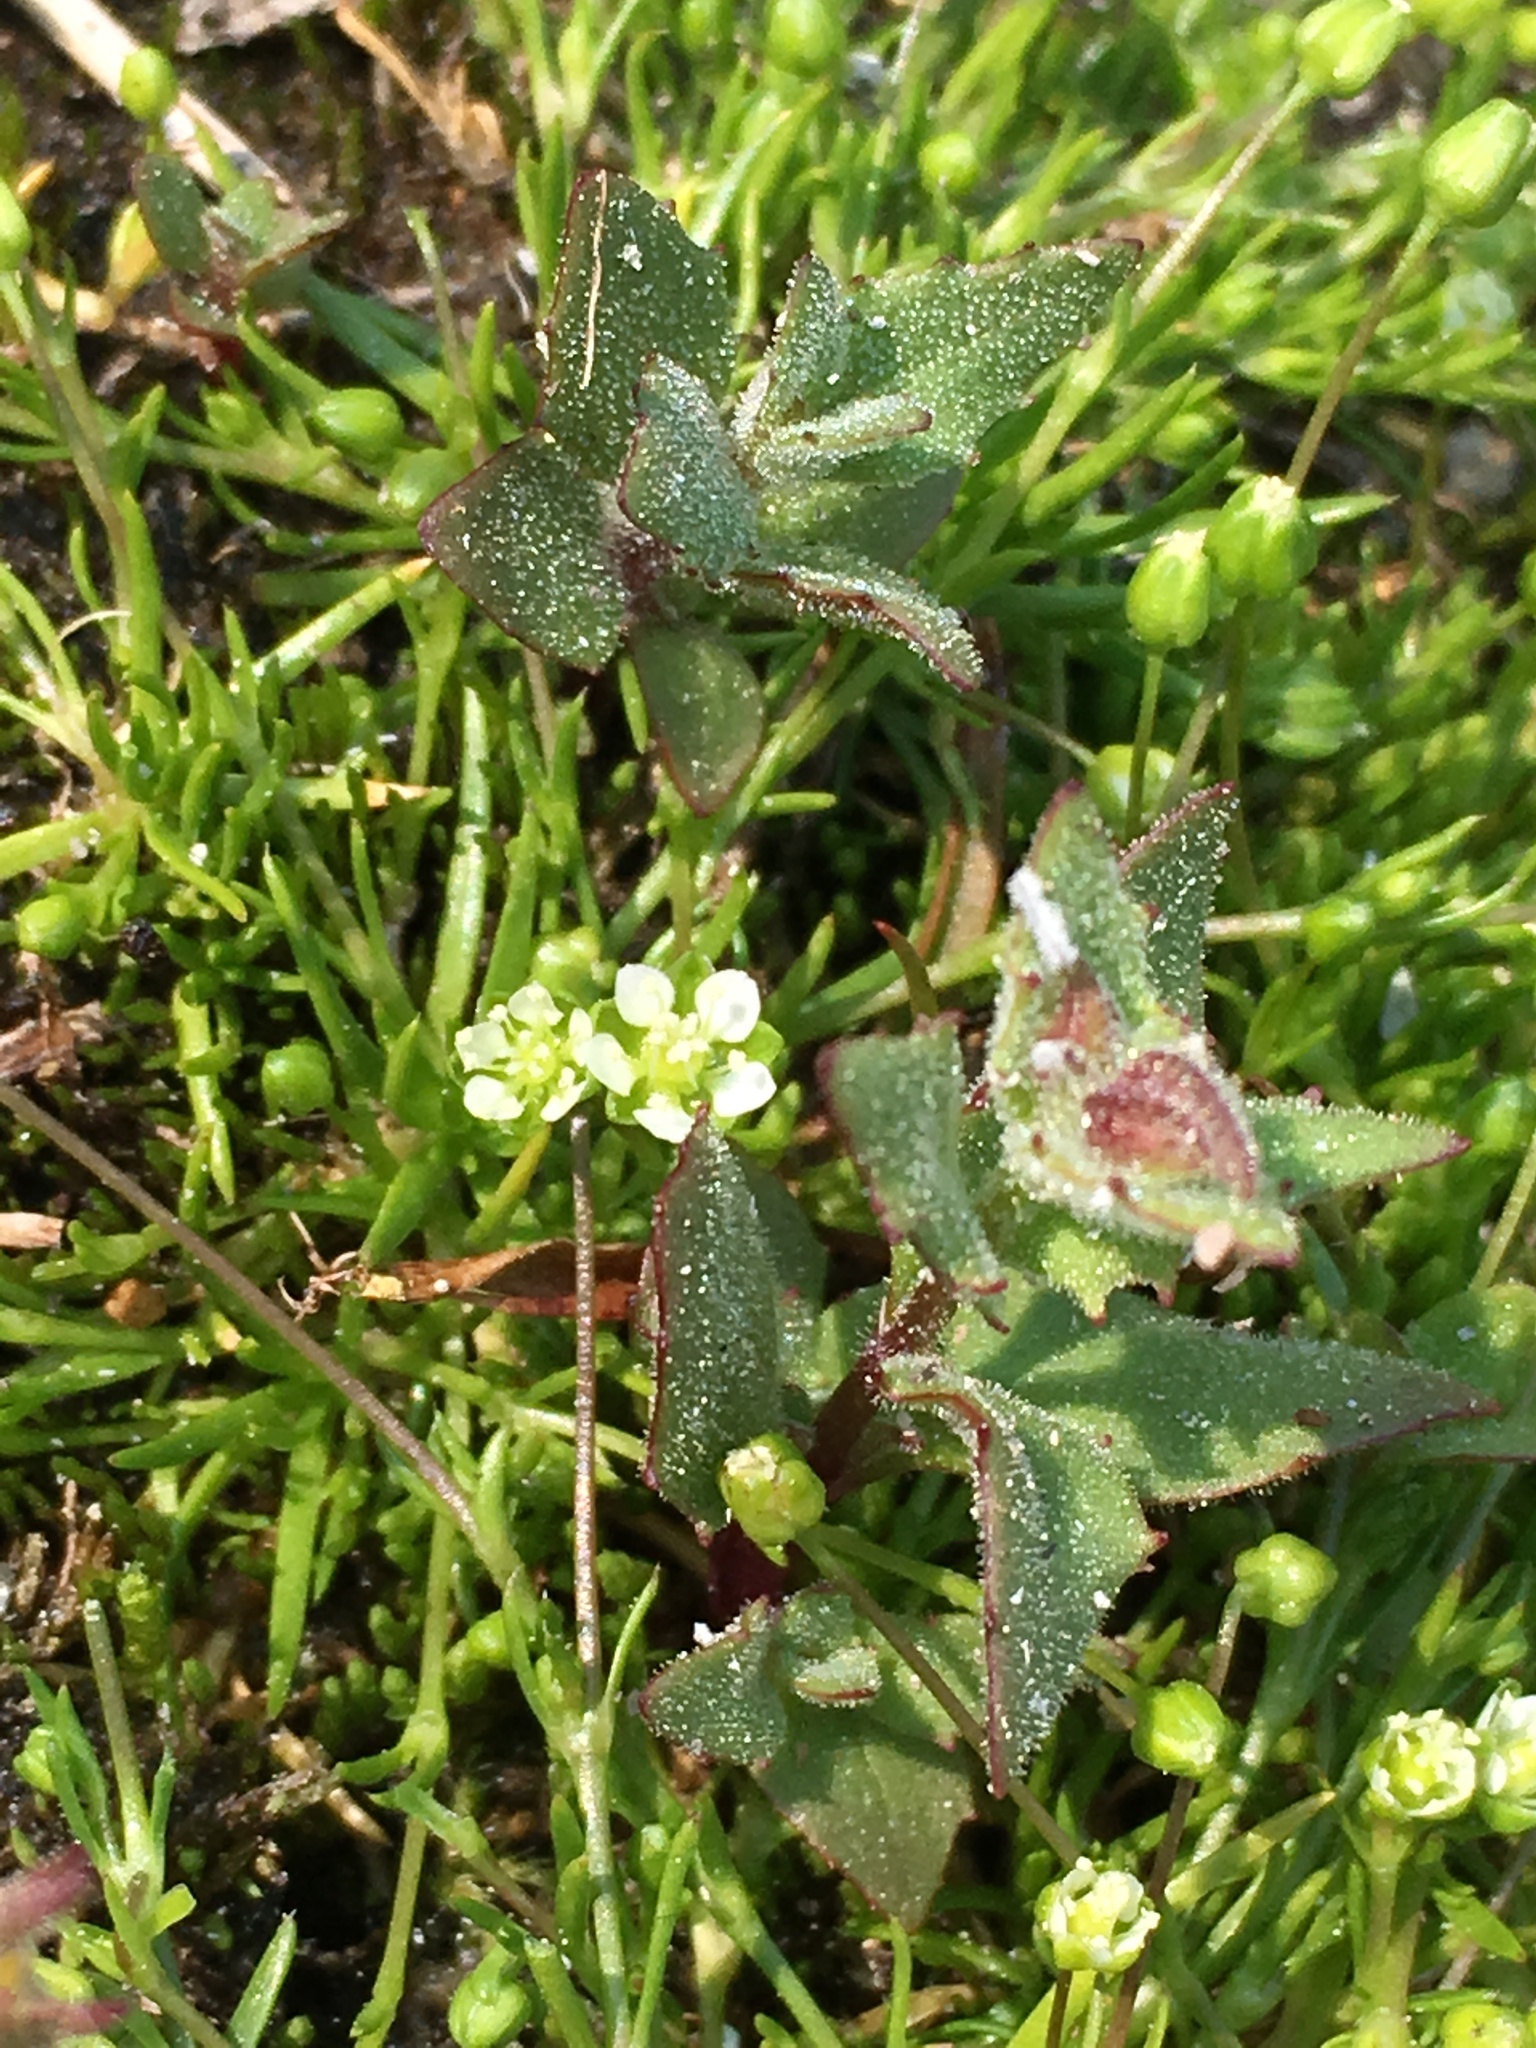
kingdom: Plantae
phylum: Tracheophyta
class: Magnoliopsida
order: Caryophyllales
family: Caryophyllaceae
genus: Sagina
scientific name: Sagina saginoides
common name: Alpine pearlwort
